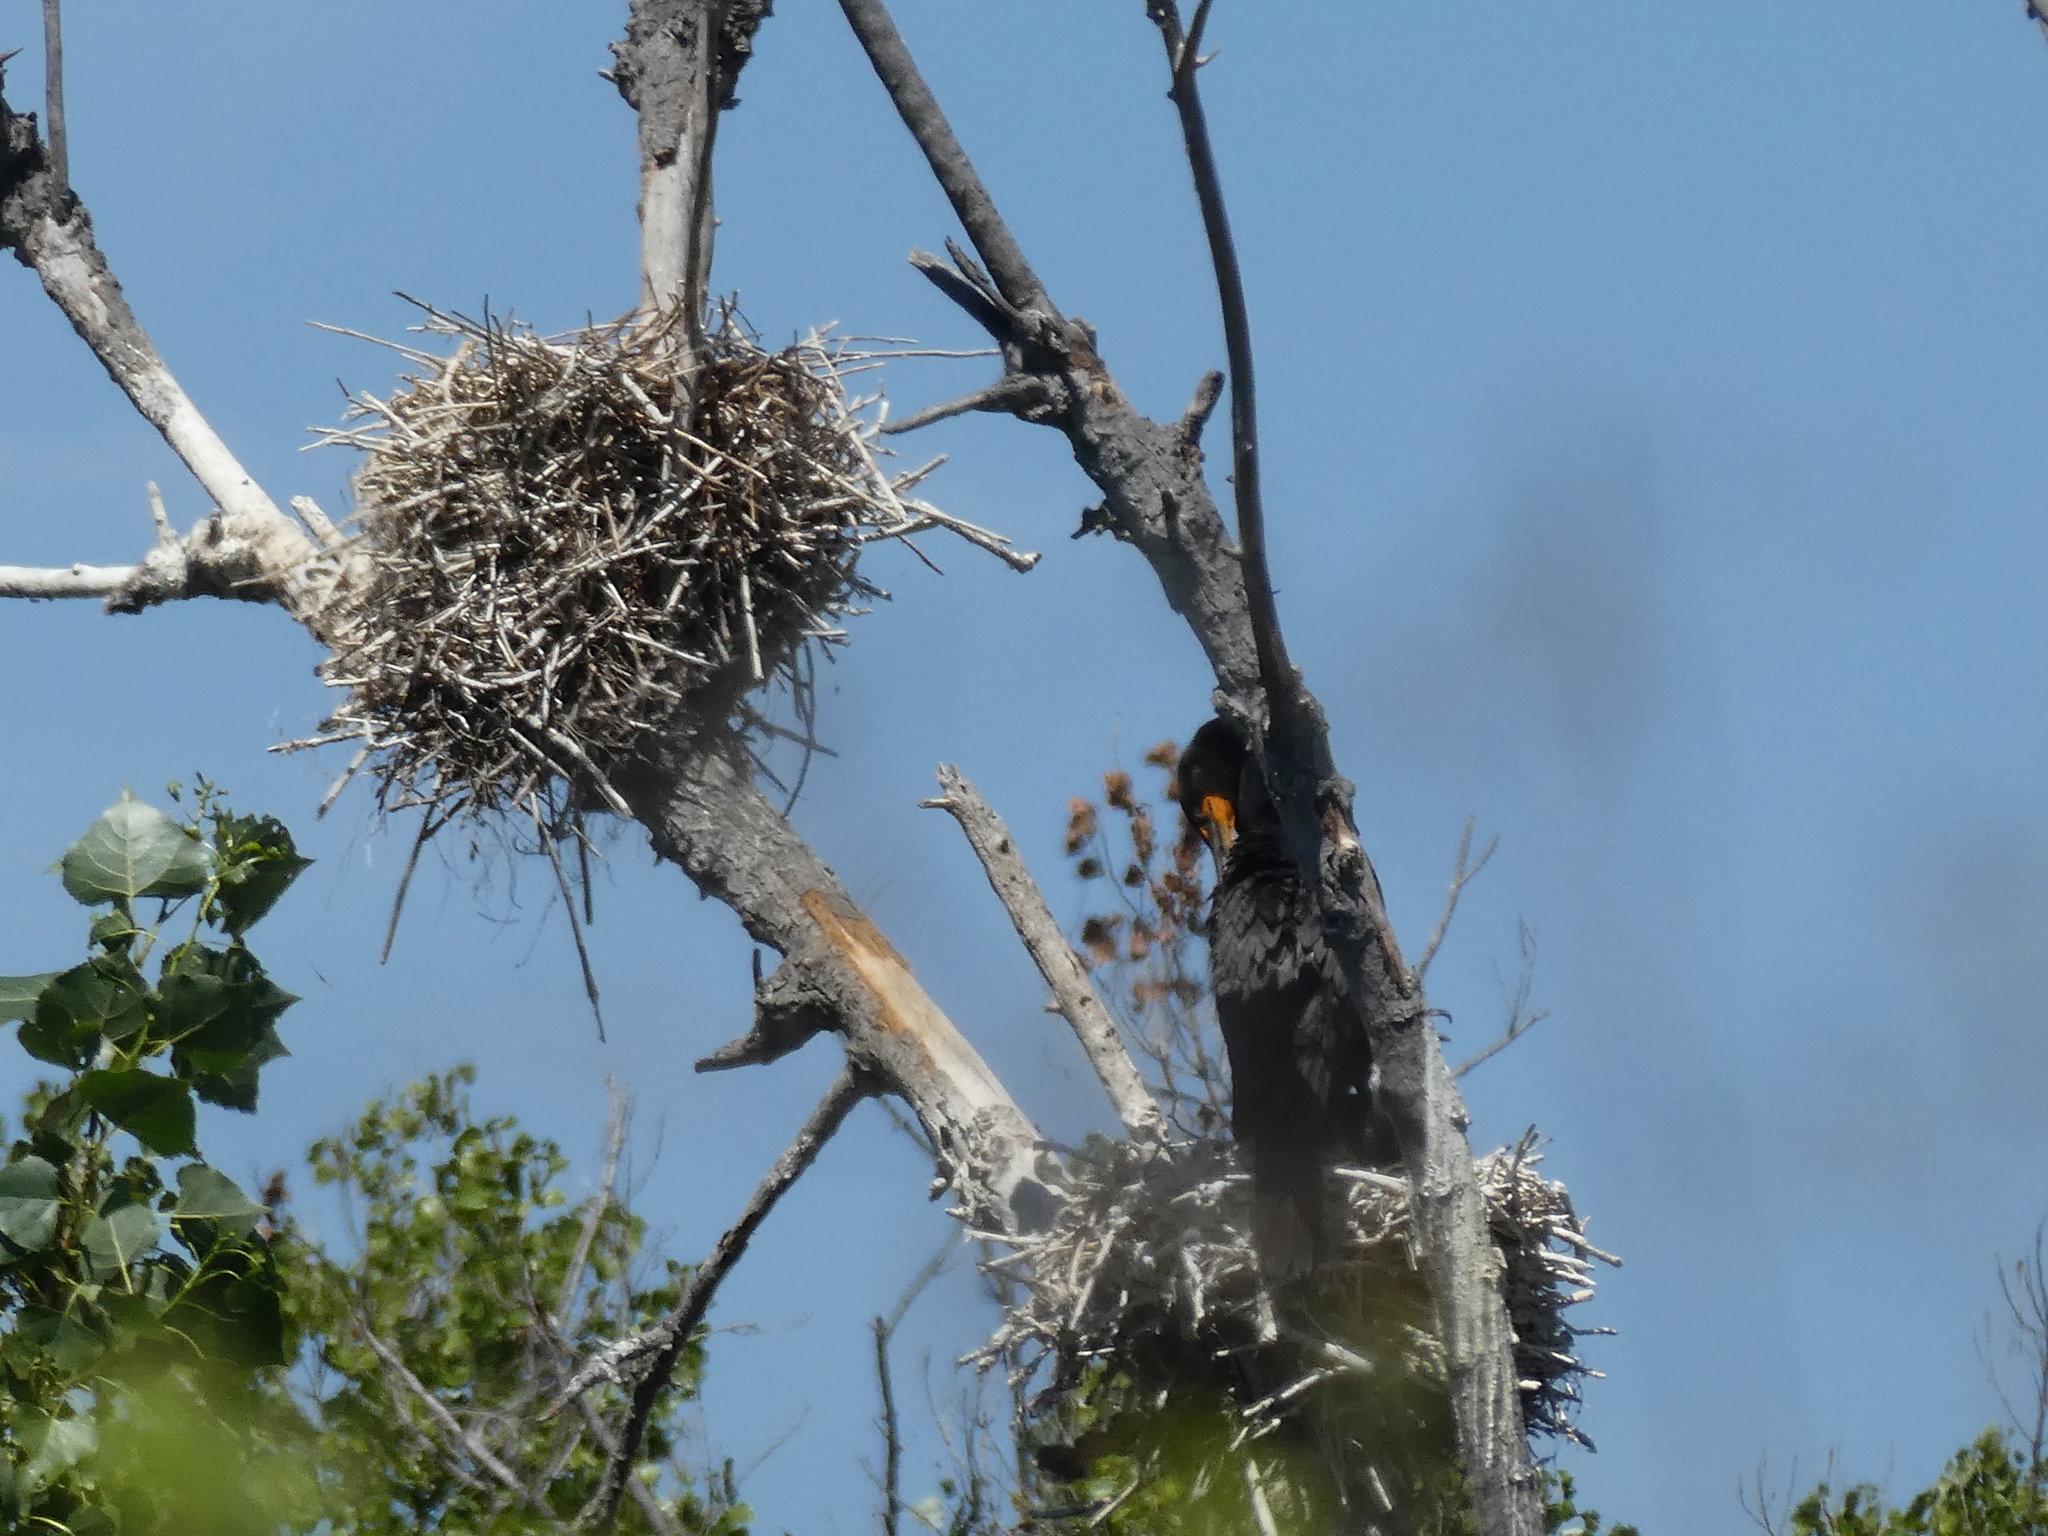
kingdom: Animalia
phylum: Chordata
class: Aves
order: Suliformes
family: Phalacrocoracidae
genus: Phalacrocorax
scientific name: Phalacrocorax auritus
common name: Double-crested cormorant
